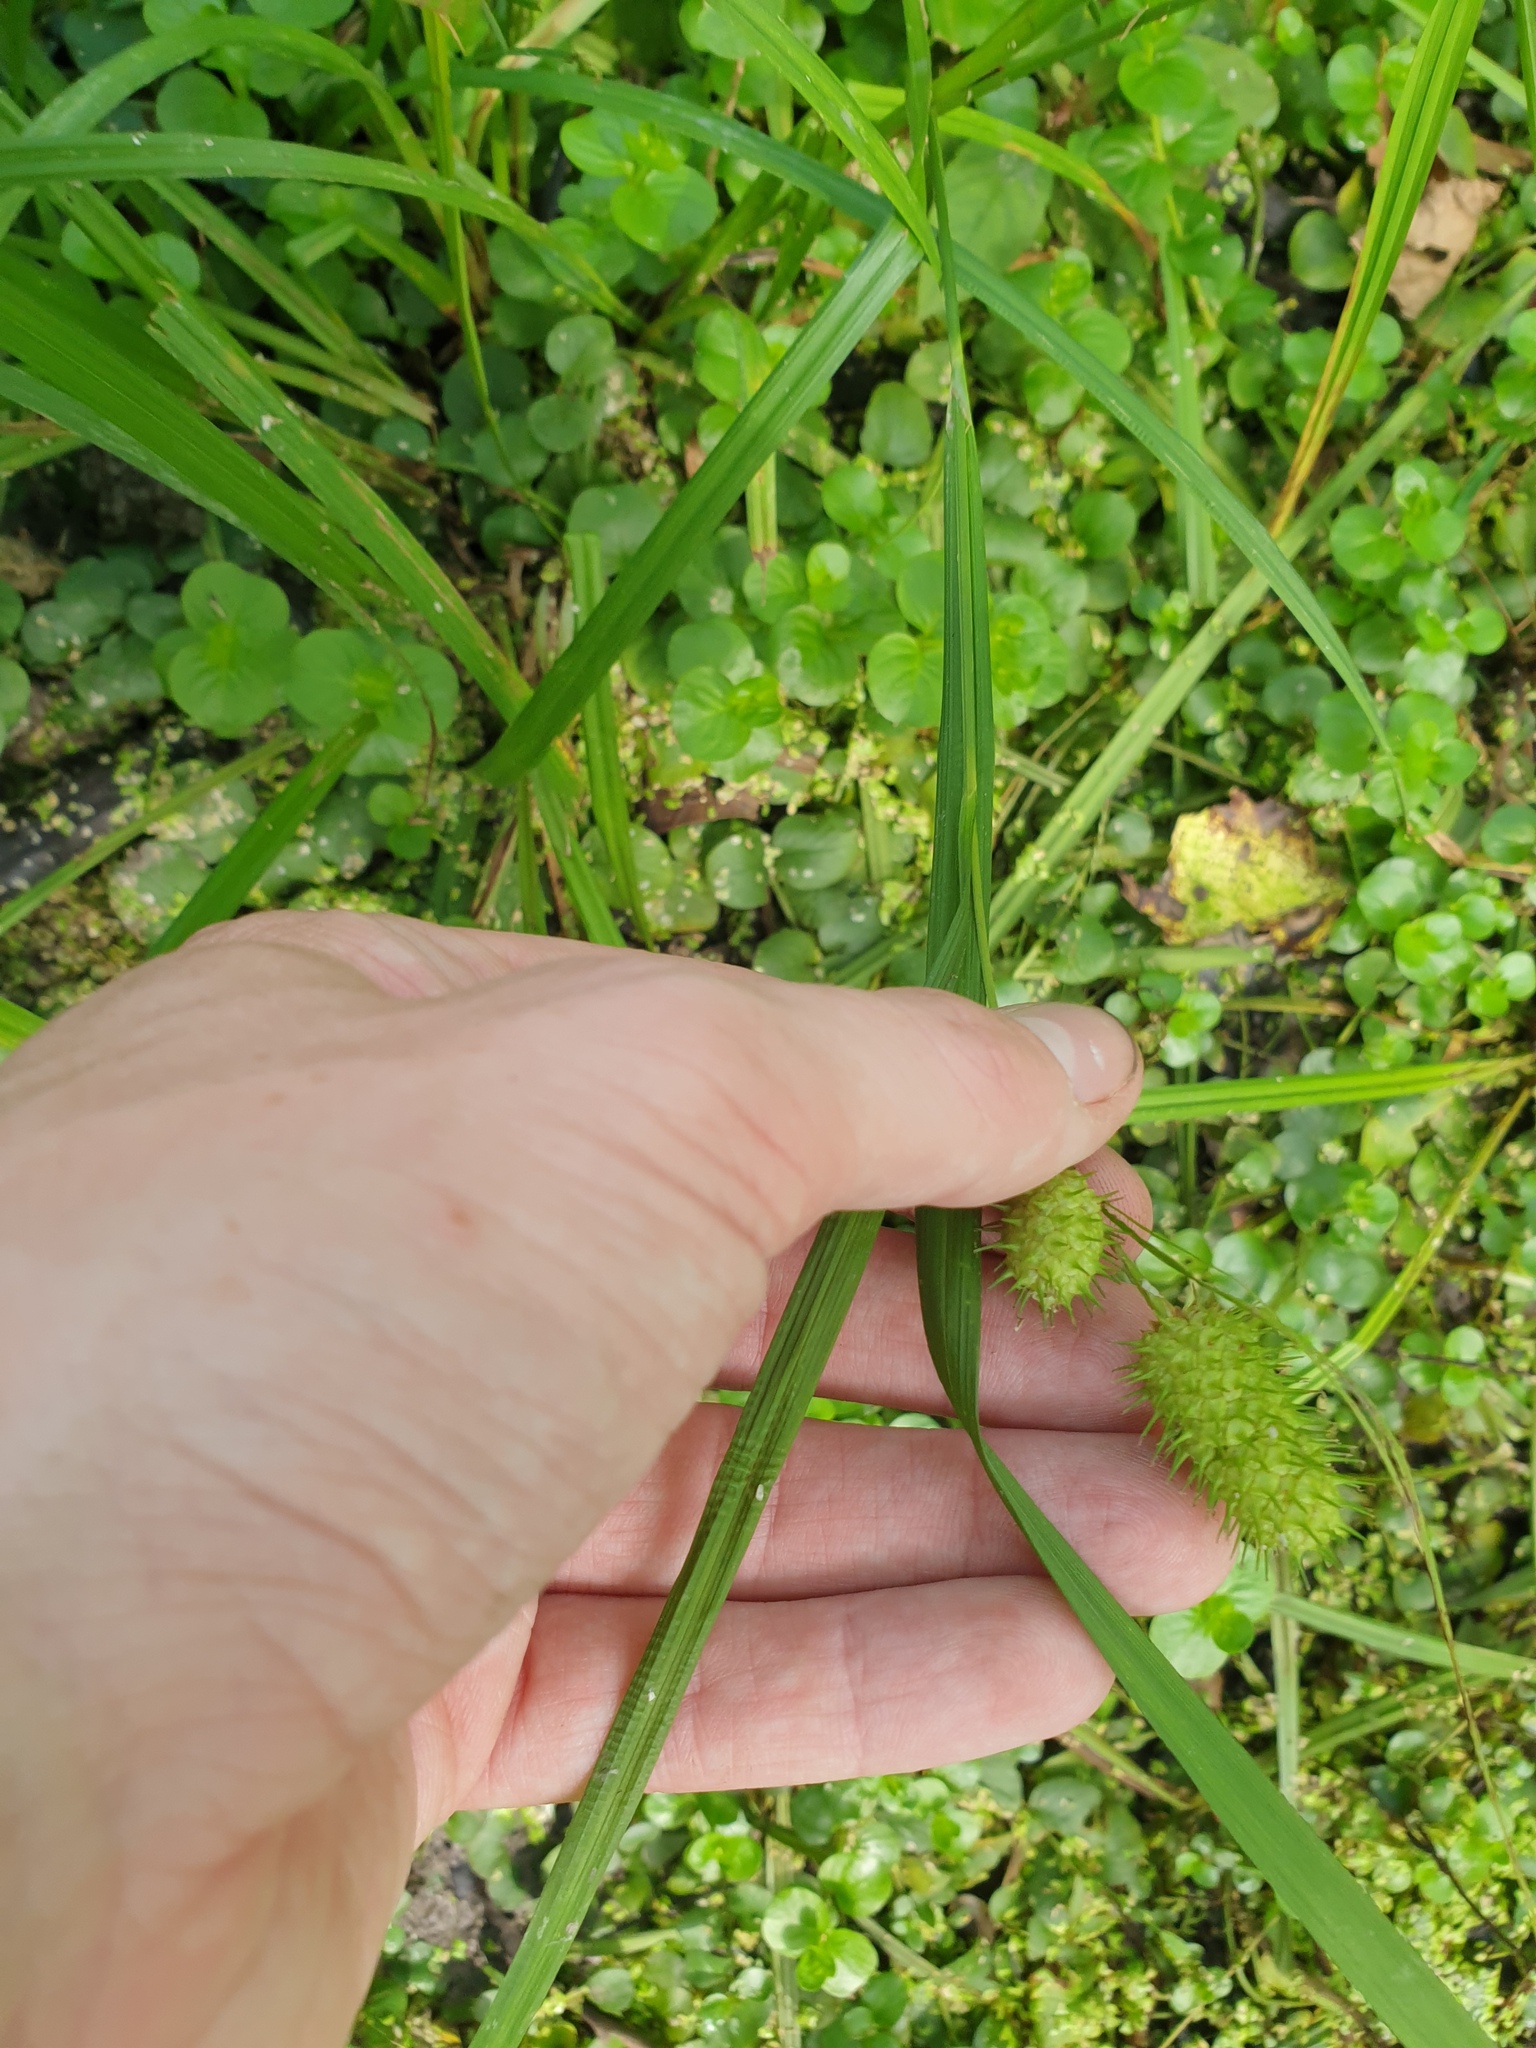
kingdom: Plantae
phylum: Tracheophyta
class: Liliopsida
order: Poales
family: Cyperaceae
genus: Carex
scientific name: Carex typhina
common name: Cattail sedge
